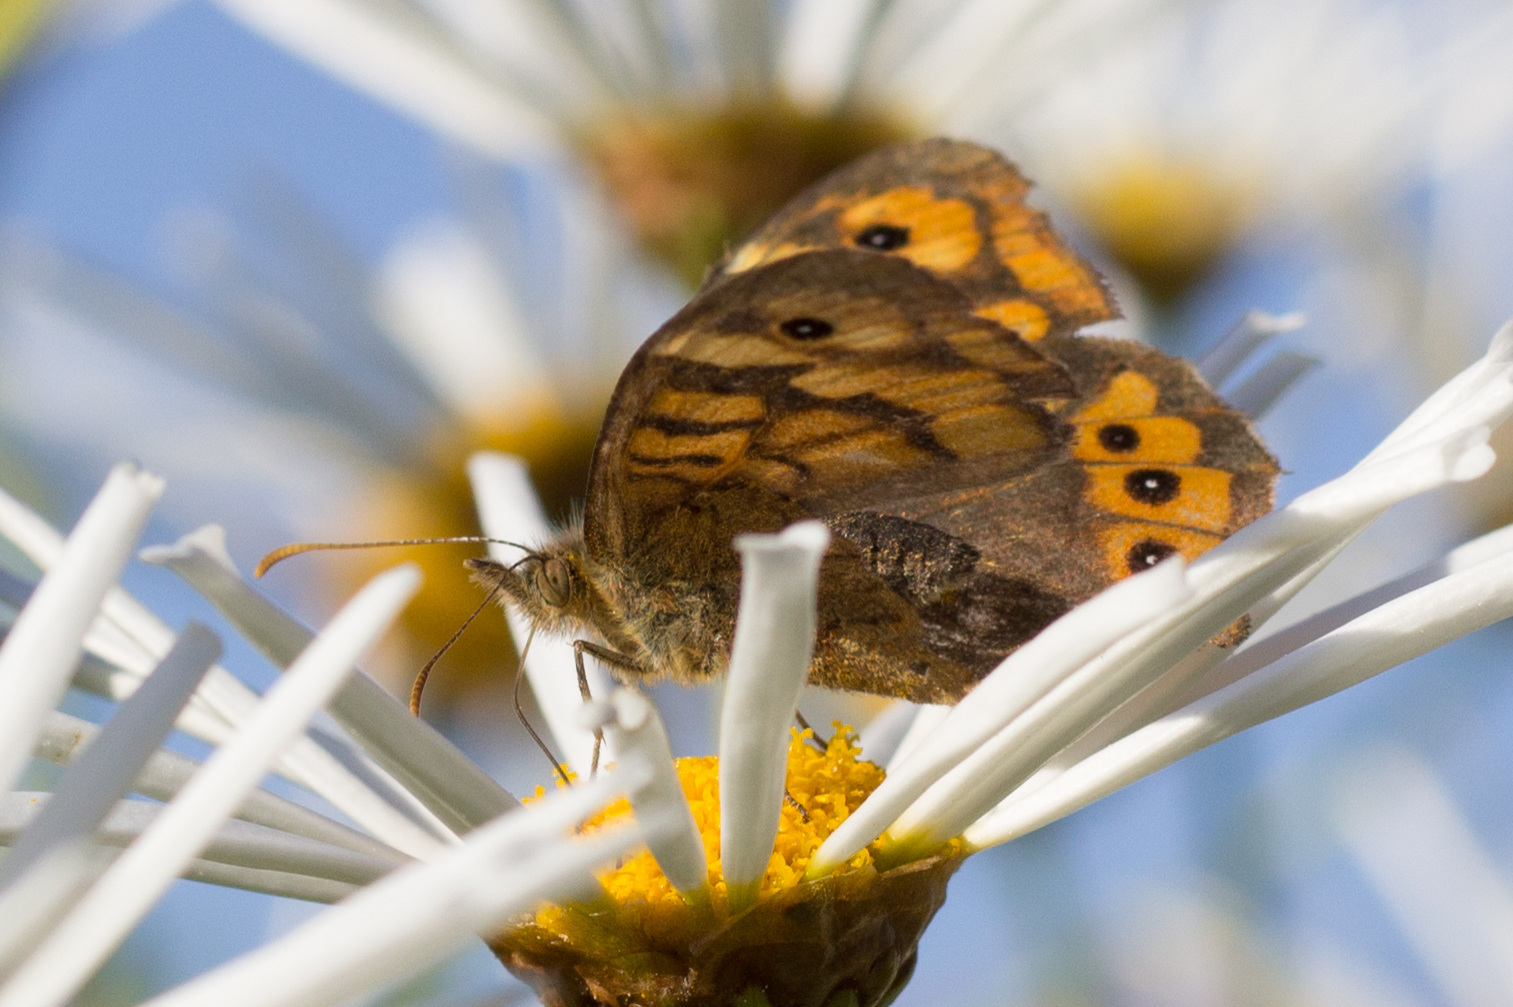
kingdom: Animalia
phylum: Arthropoda
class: Insecta
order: Lepidoptera
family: Nymphalidae
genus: Pararge
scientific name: Pararge aegeria
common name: Speckled wood
